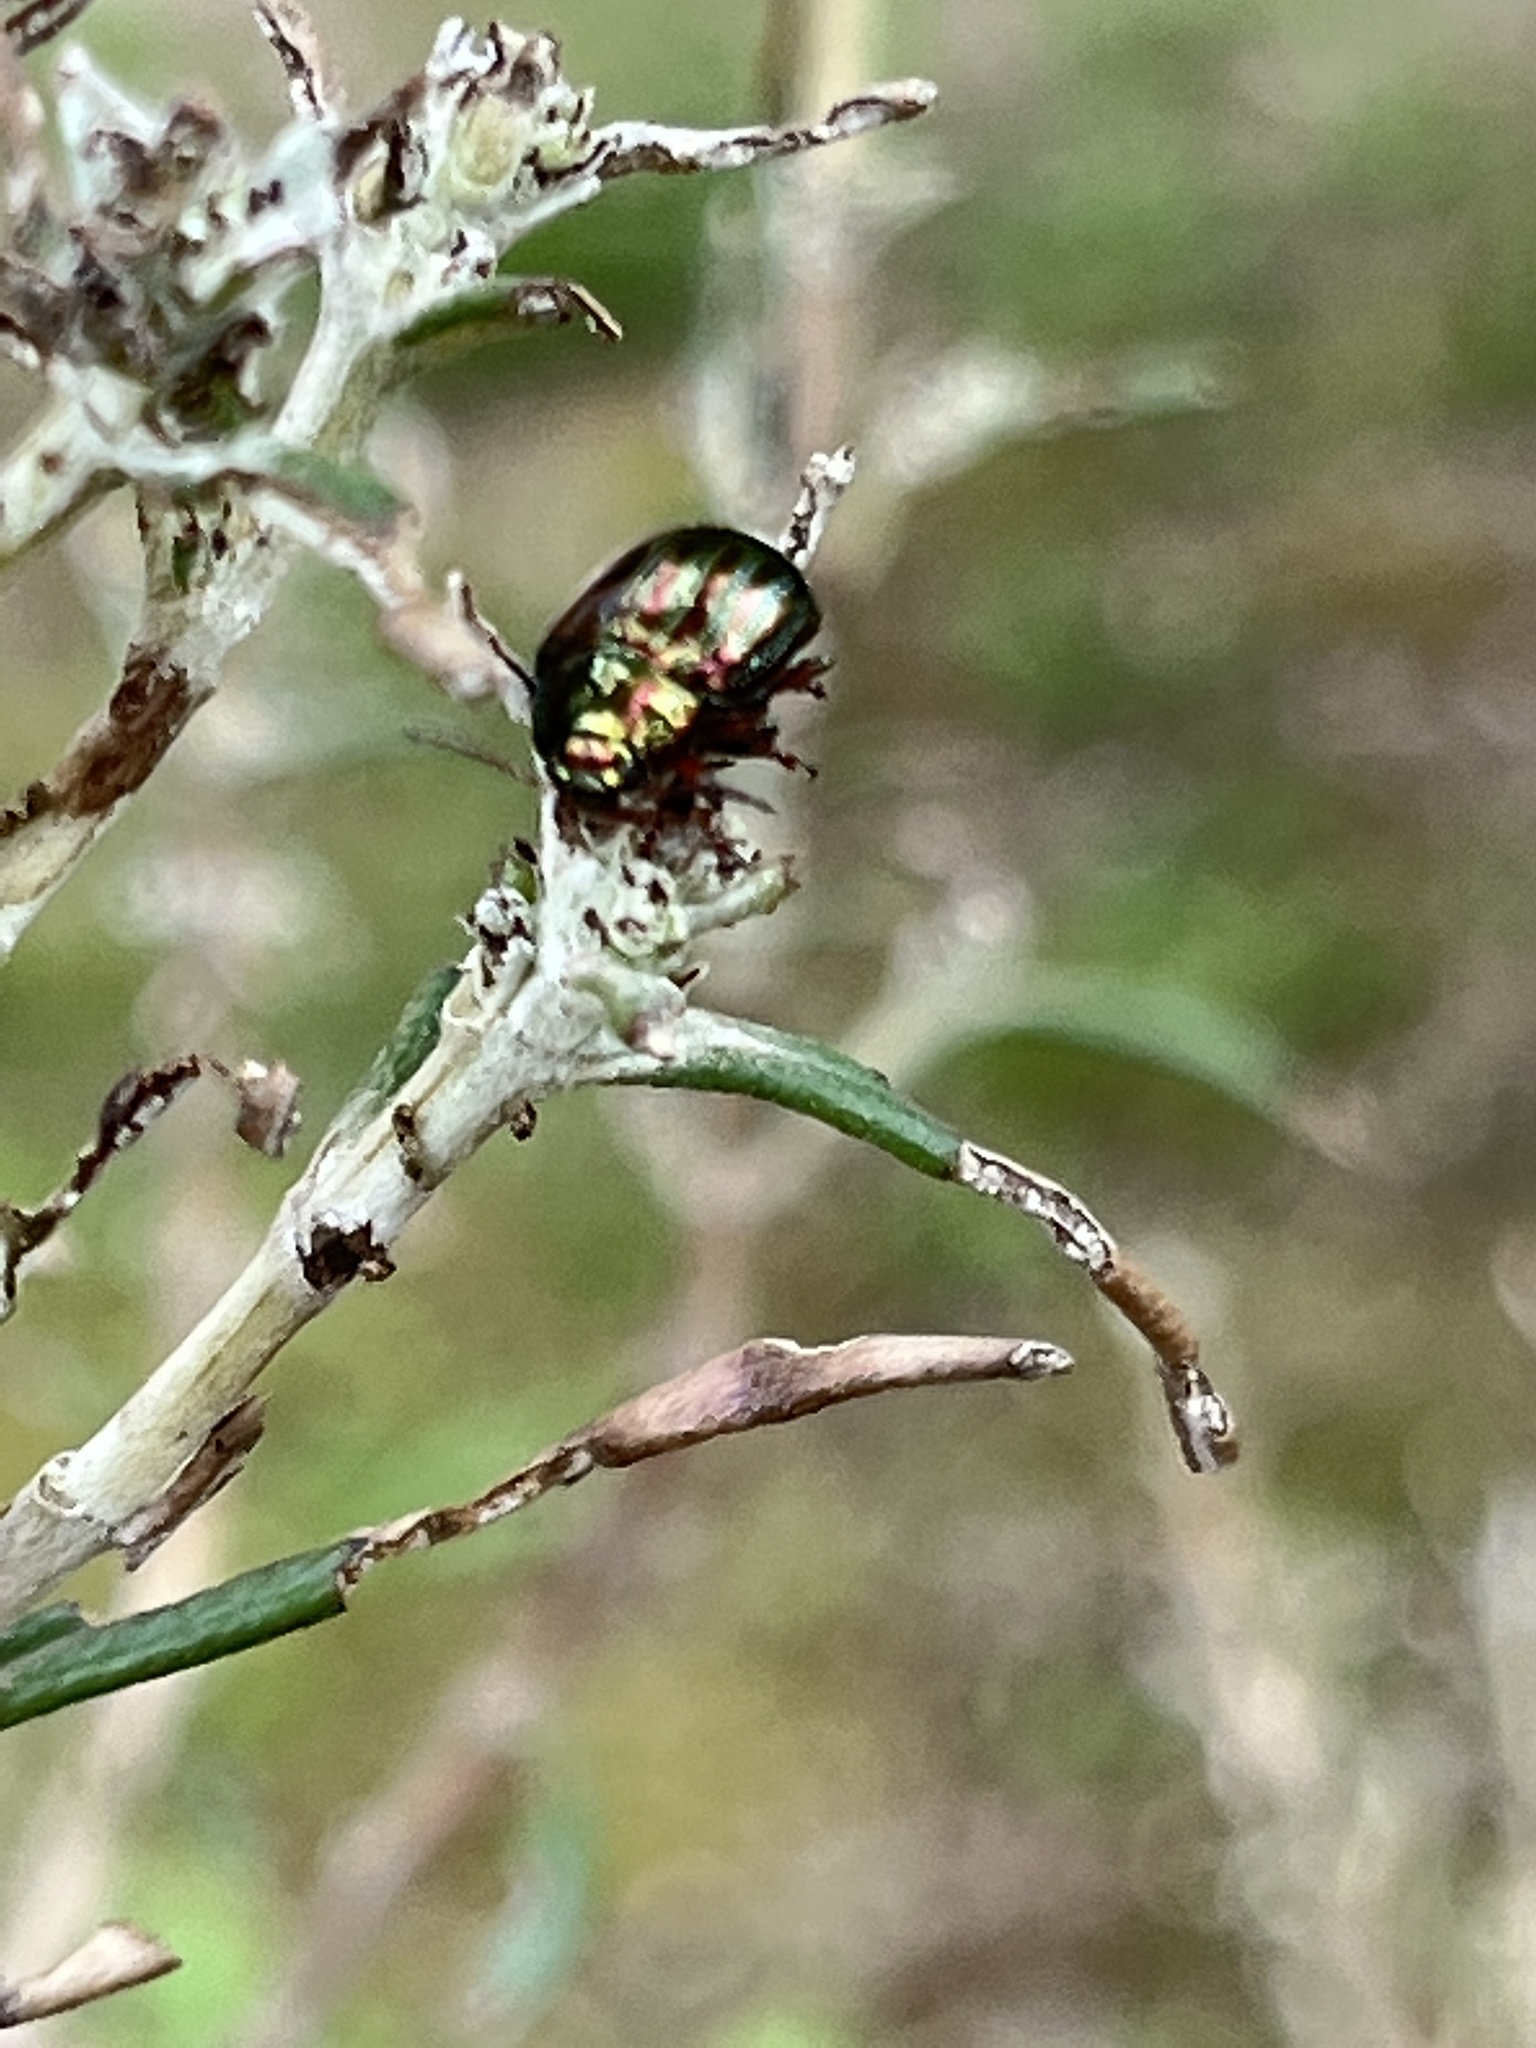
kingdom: Animalia
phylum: Arthropoda
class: Insecta
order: Coleoptera
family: Chrysomelidae
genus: Chrysolina
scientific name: Chrysolina americana
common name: Rosemary beetle
